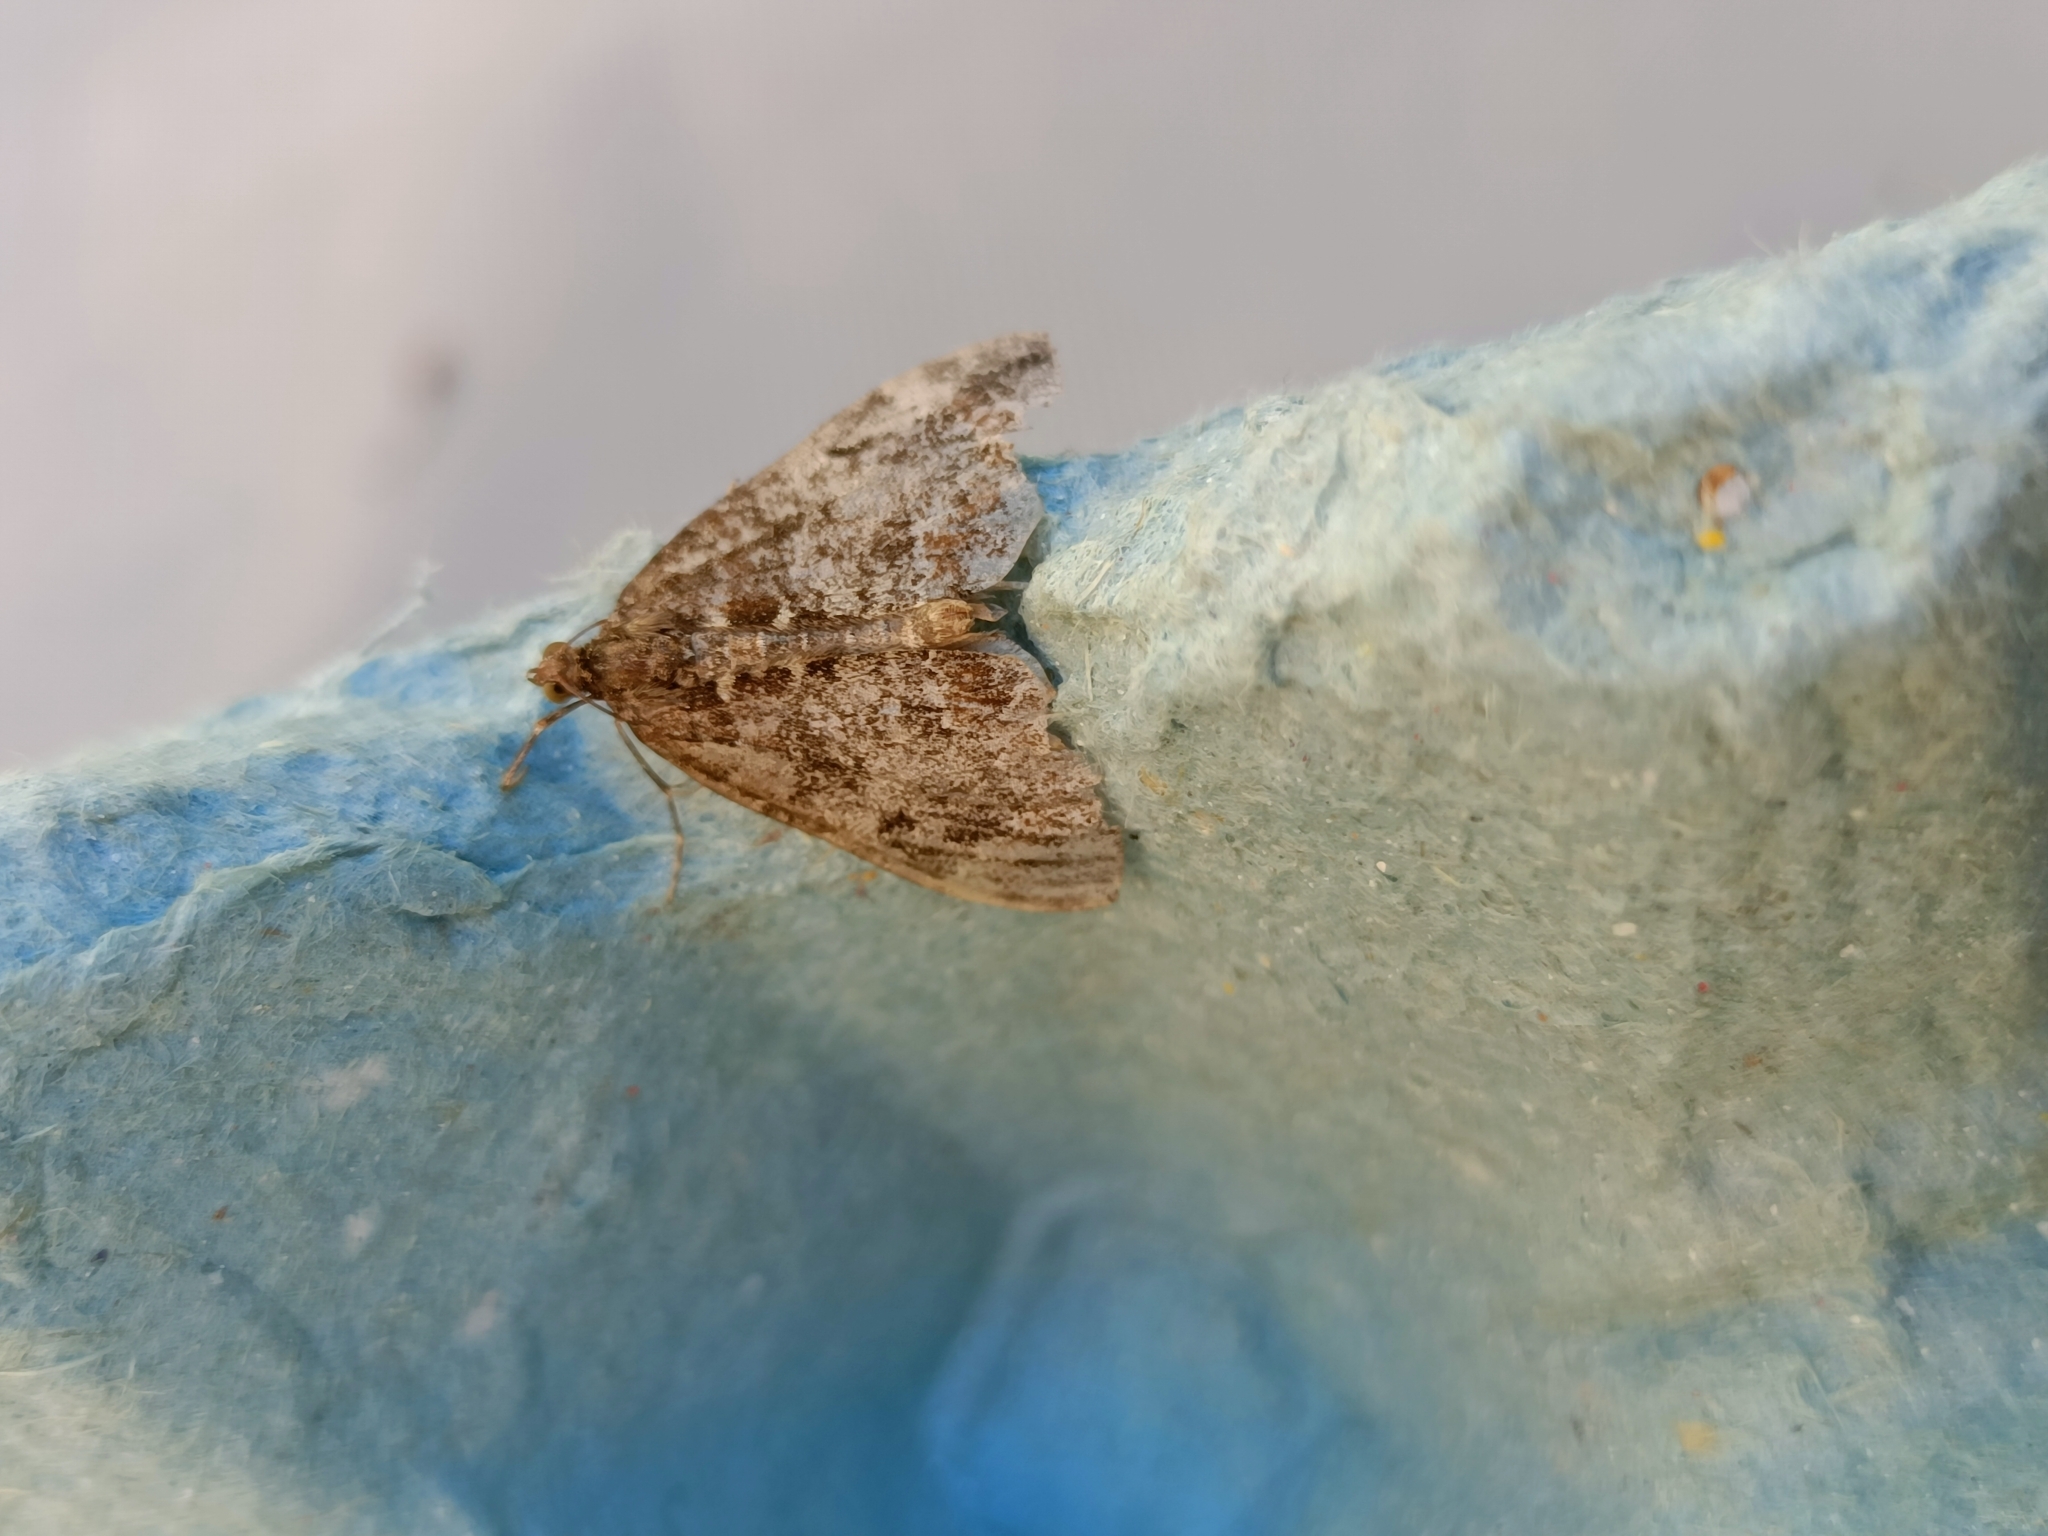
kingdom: Animalia
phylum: Arthropoda
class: Insecta
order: Lepidoptera
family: Geometridae
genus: Dysstroma
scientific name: Dysstroma truncata
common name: Common marbled carpet
